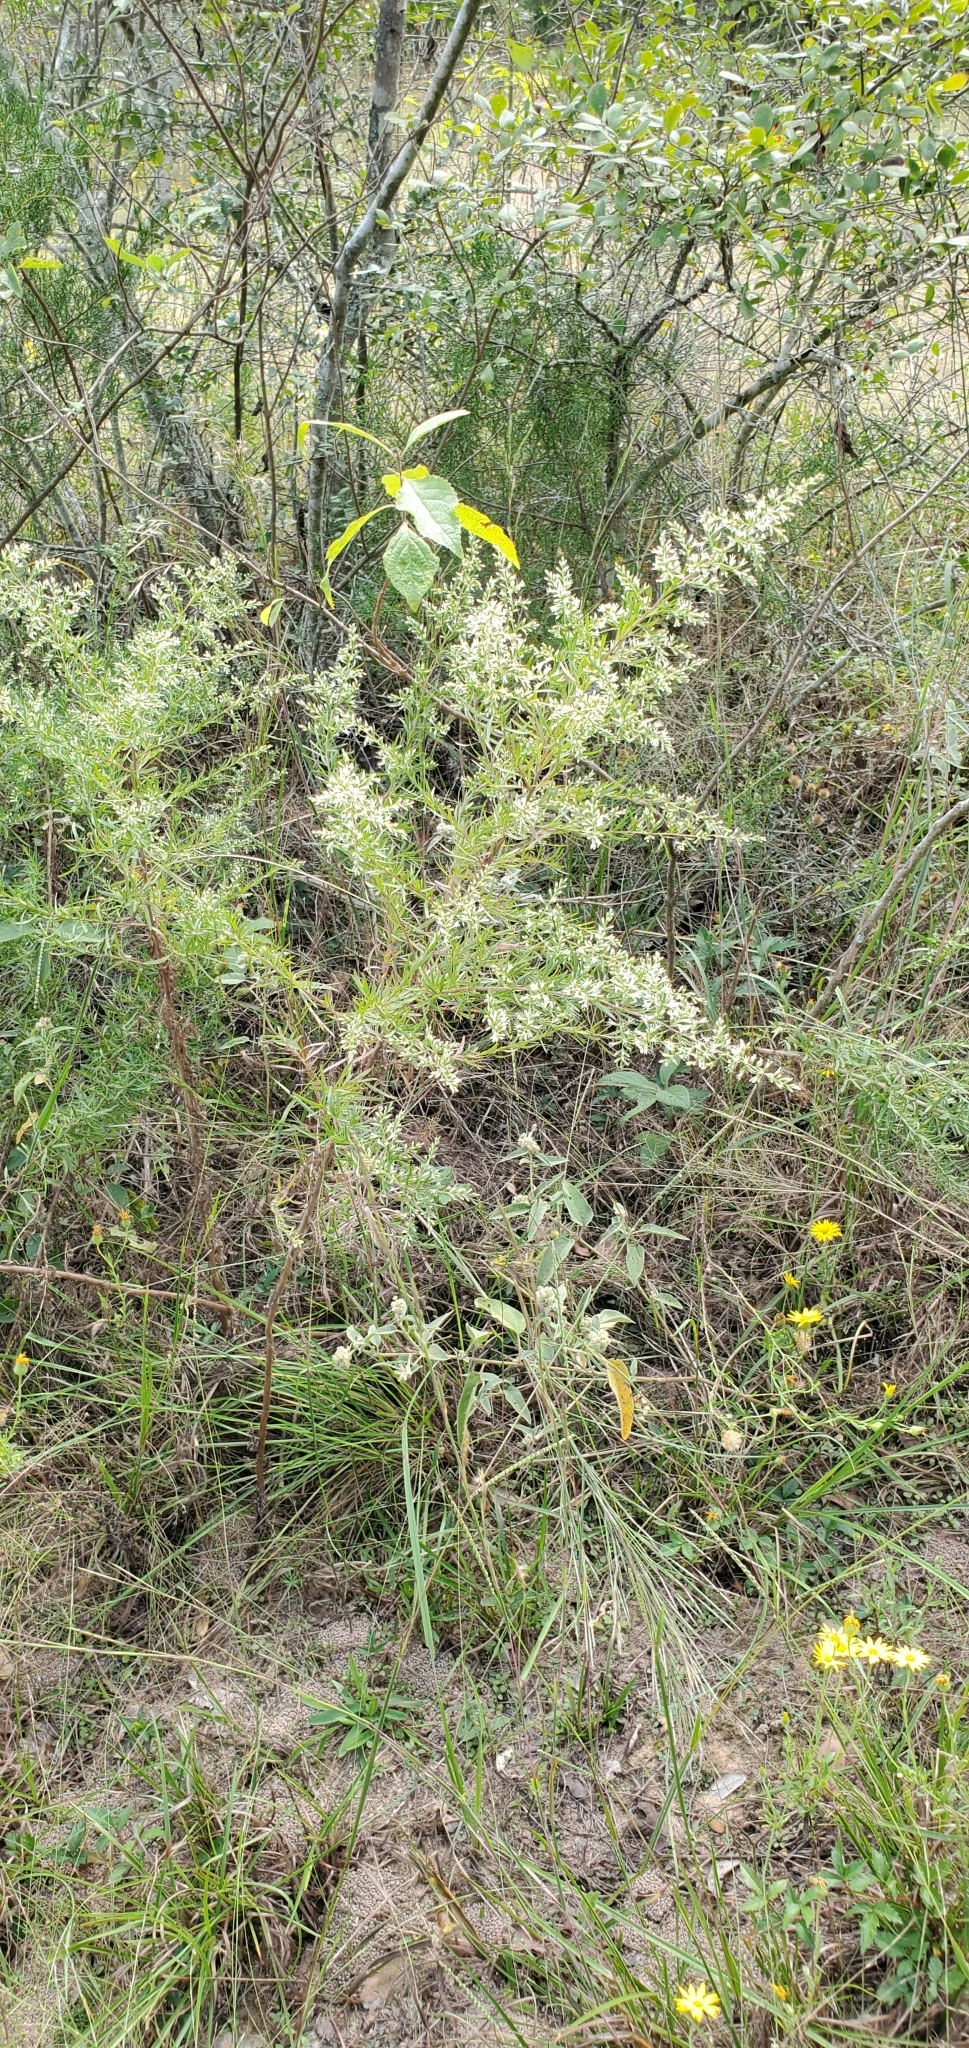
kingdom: Plantae
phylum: Tracheophyta
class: Magnoliopsida
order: Asterales
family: Asteraceae
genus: Eupatorium
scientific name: Eupatorium compositifolium
